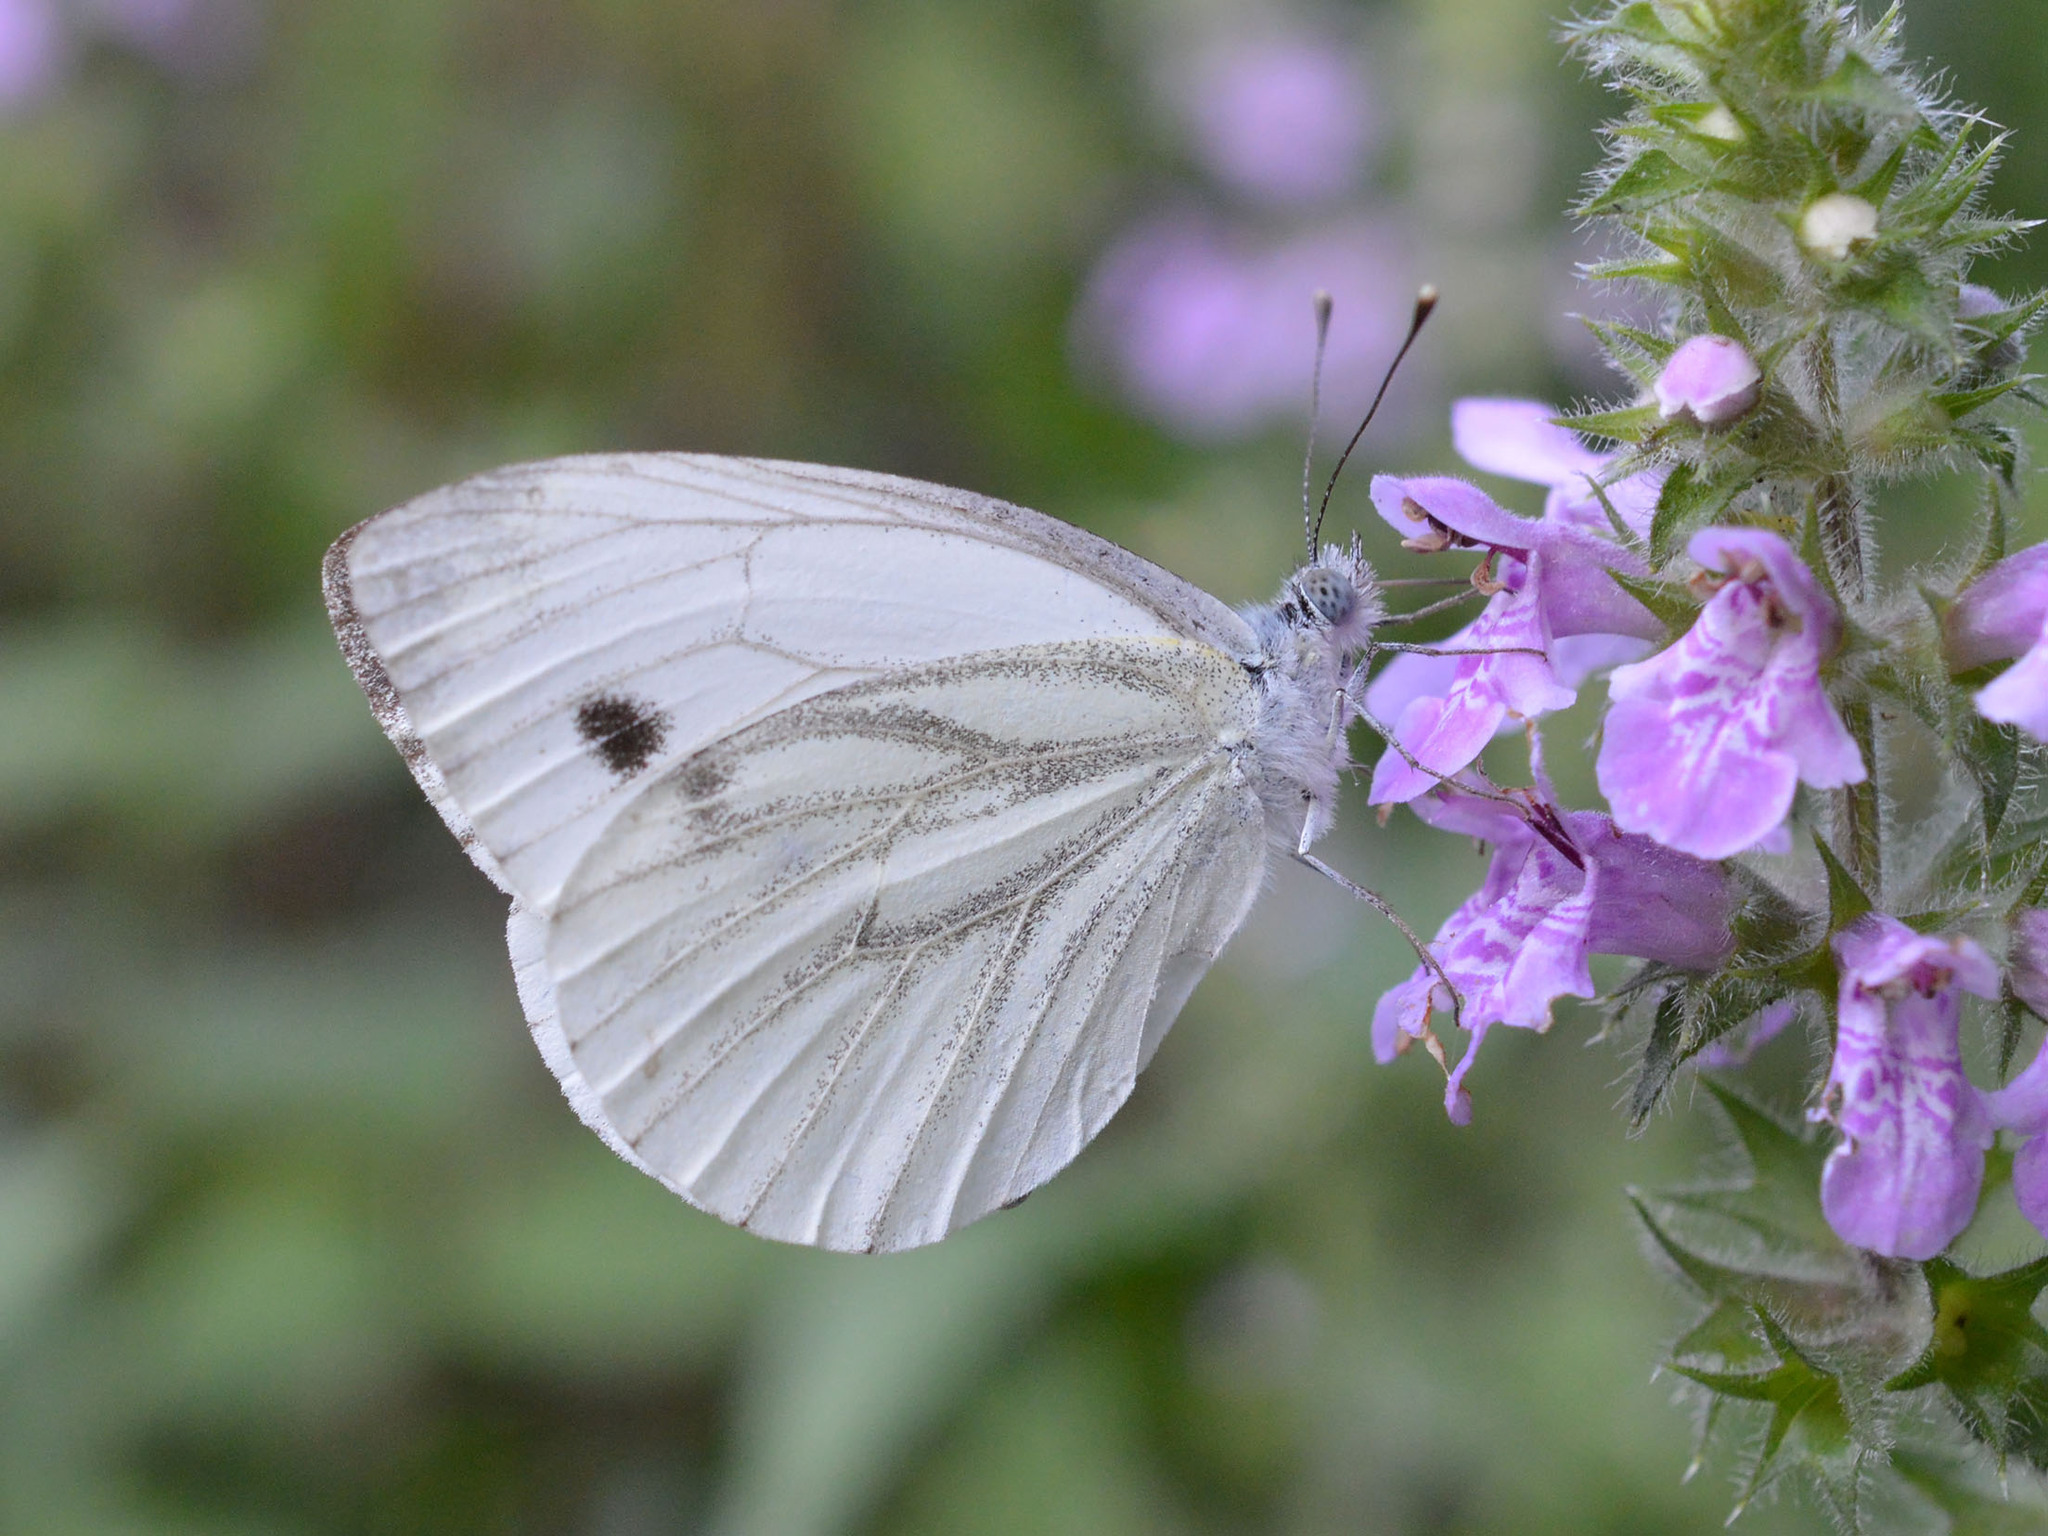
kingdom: Animalia
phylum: Arthropoda
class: Insecta
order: Lepidoptera
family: Pieridae
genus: Pieris
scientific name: Pieris napi
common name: Green-veined white
